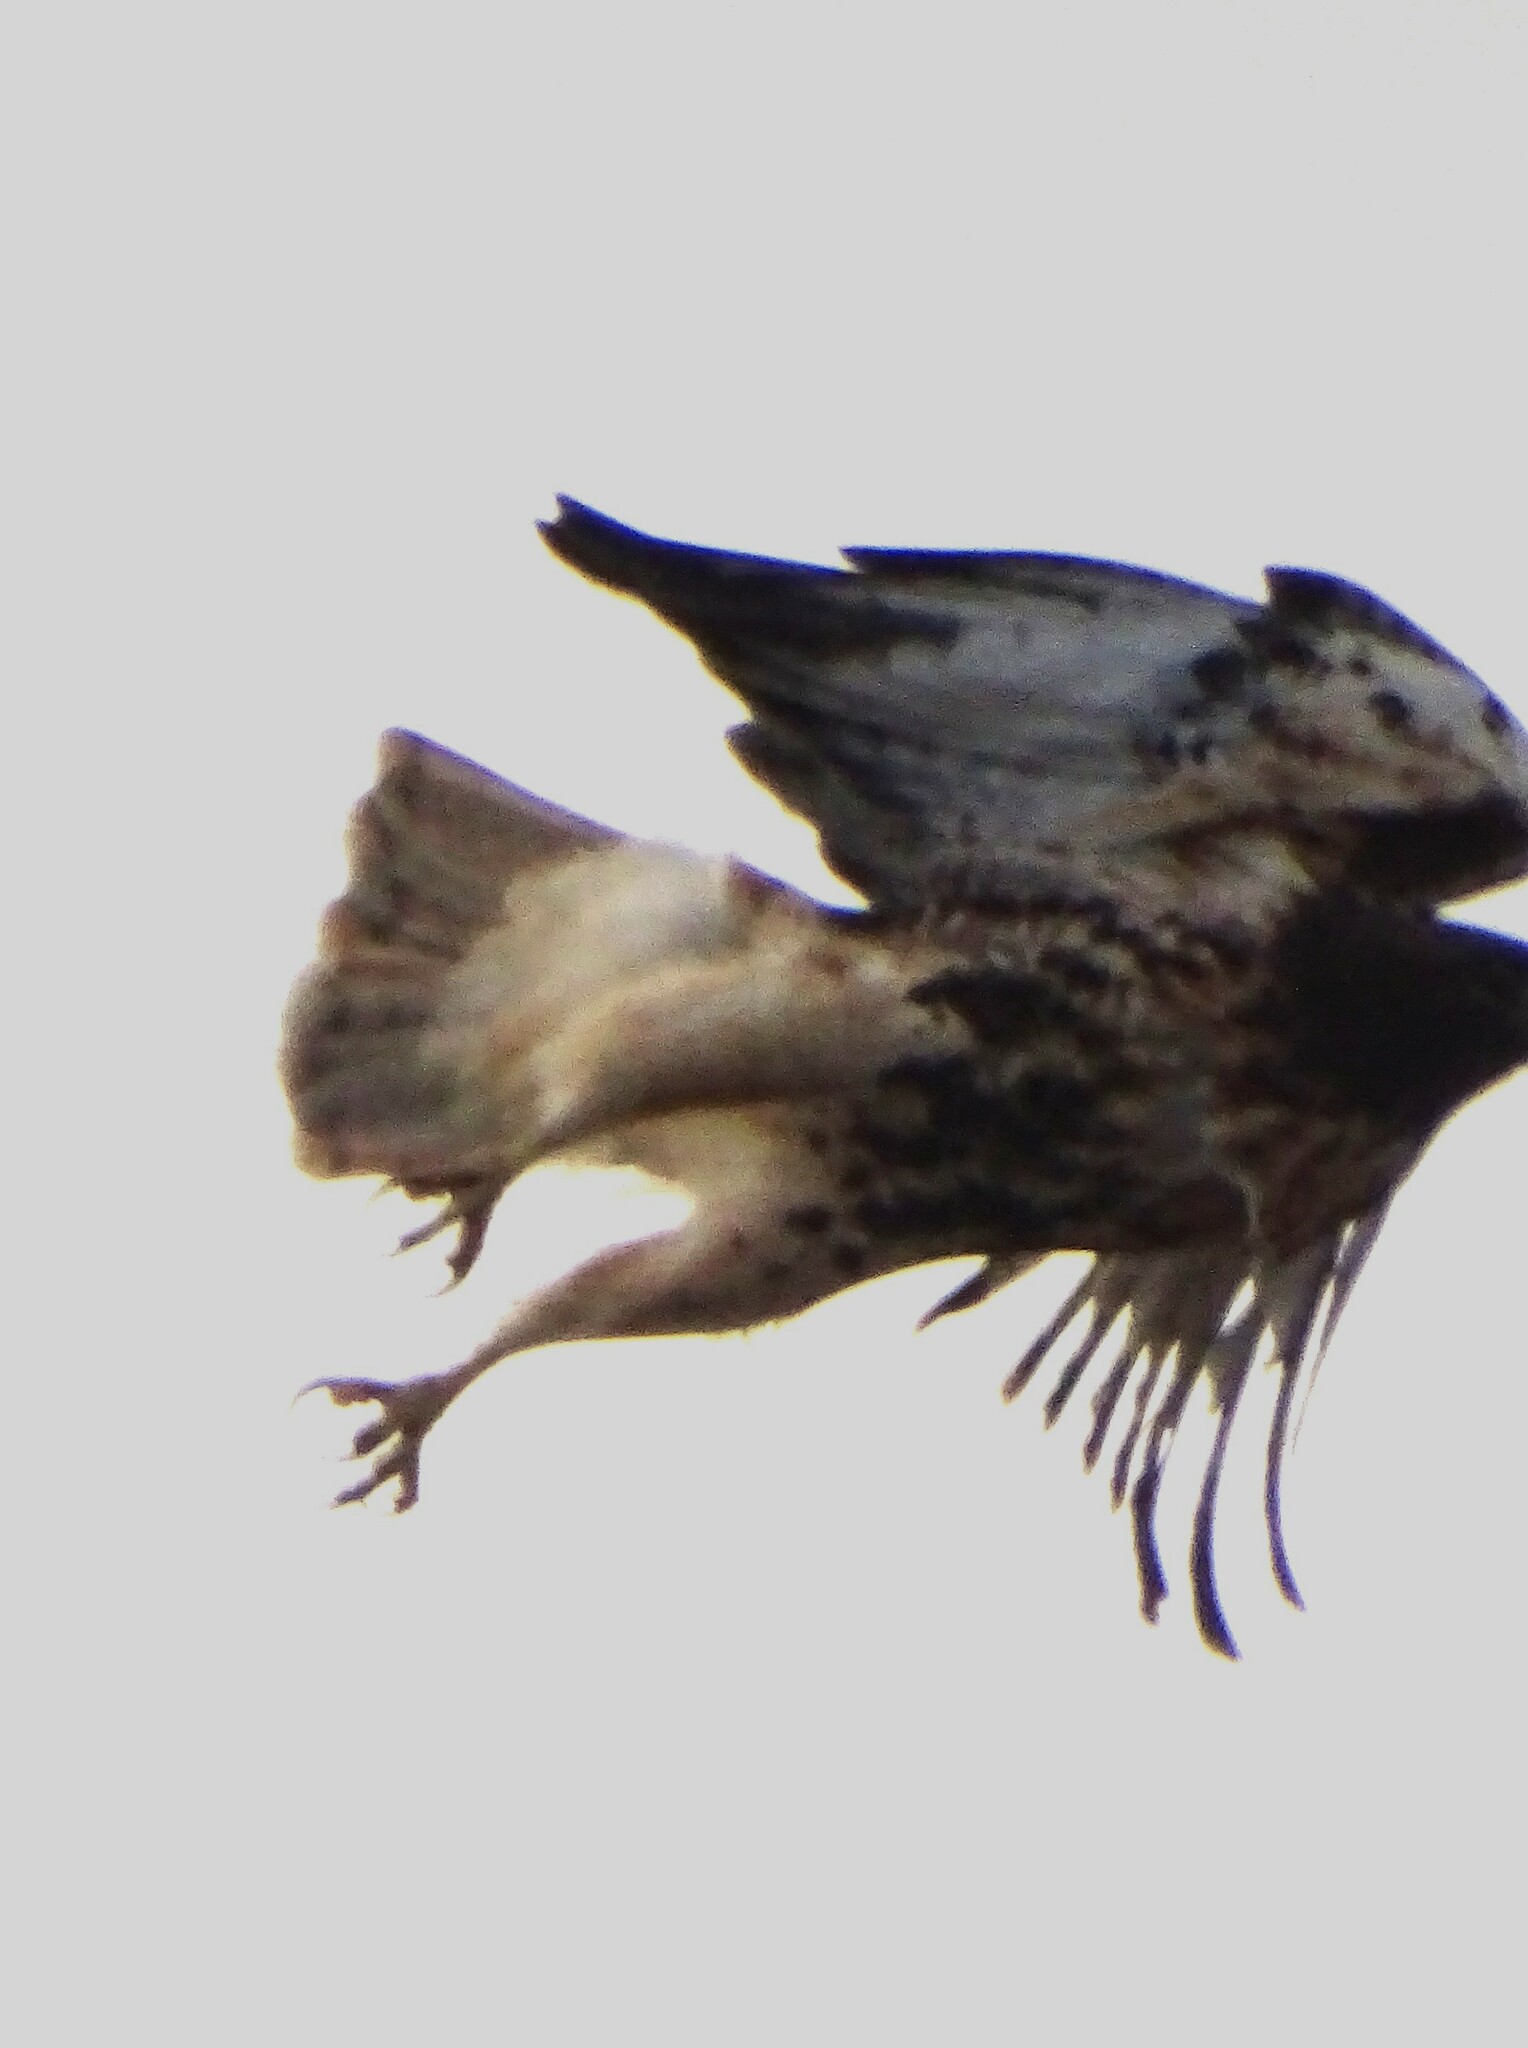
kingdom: Animalia
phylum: Chordata
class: Aves
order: Accipitriformes
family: Accipitridae
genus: Buteo
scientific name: Buteo jamaicensis
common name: Red-tailed hawk
